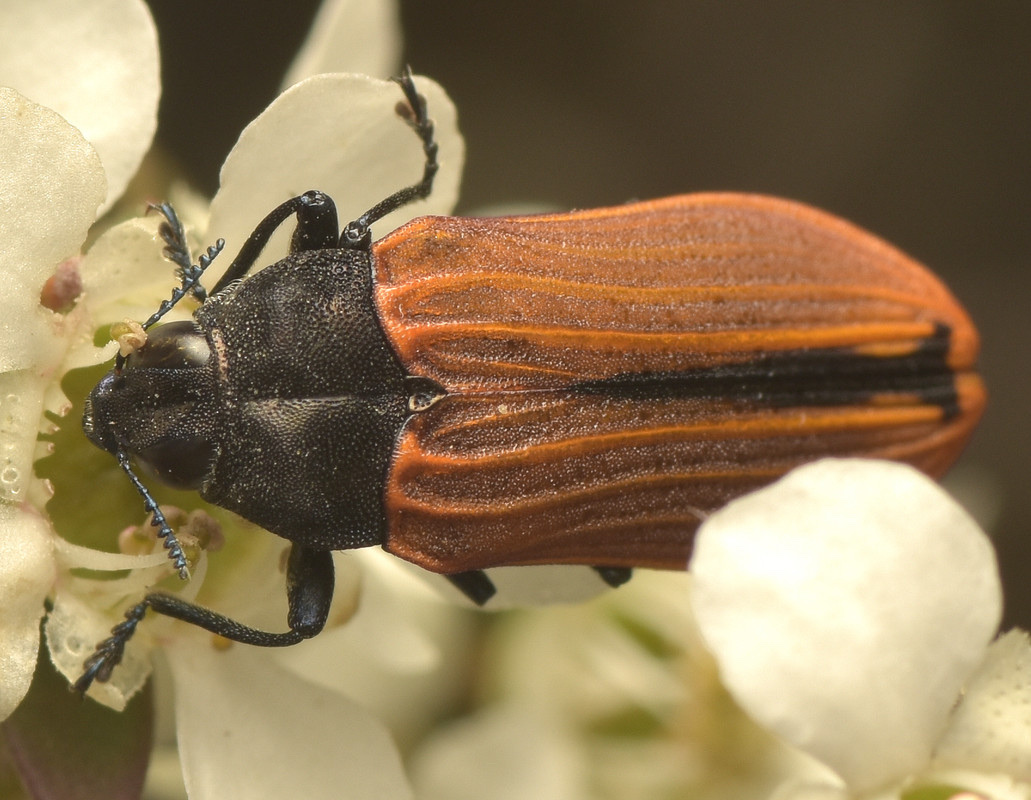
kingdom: Animalia
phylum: Arthropoda
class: Insecta
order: Coleoptera
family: Buprestidae
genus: Castiarina
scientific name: Castiarina erythroptera
